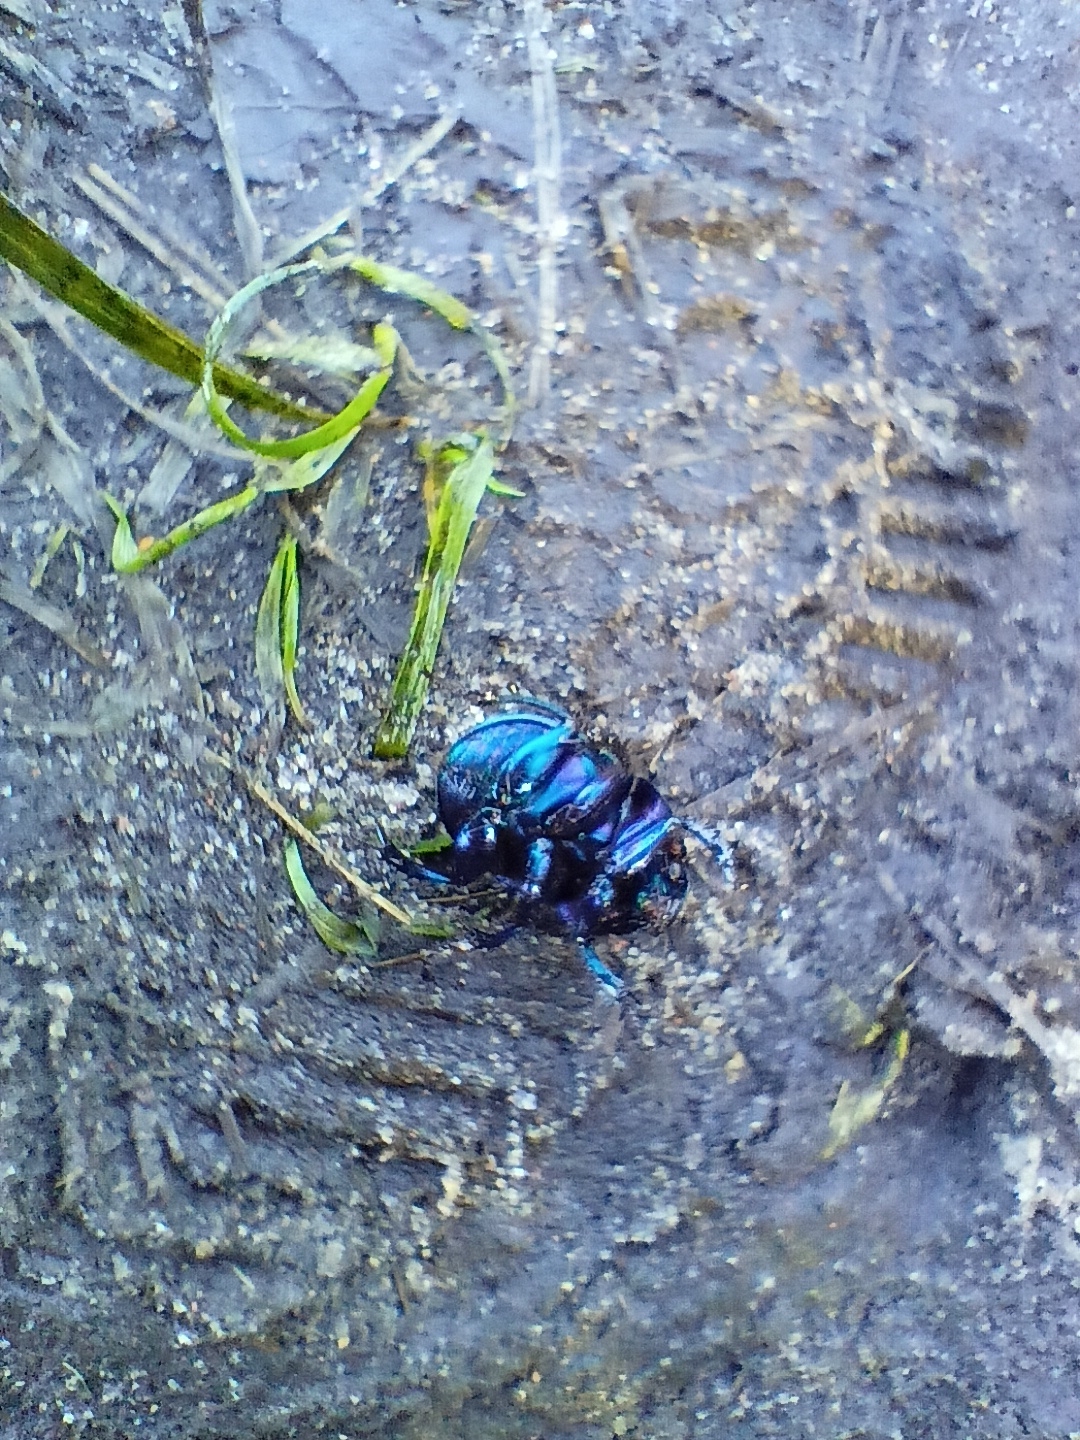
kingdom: Animalia
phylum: Arthropoda
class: Insecta
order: Coleoptera
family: Geotrupidae
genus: Anoplotrupes
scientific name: Anoplotrupes stercorosus
